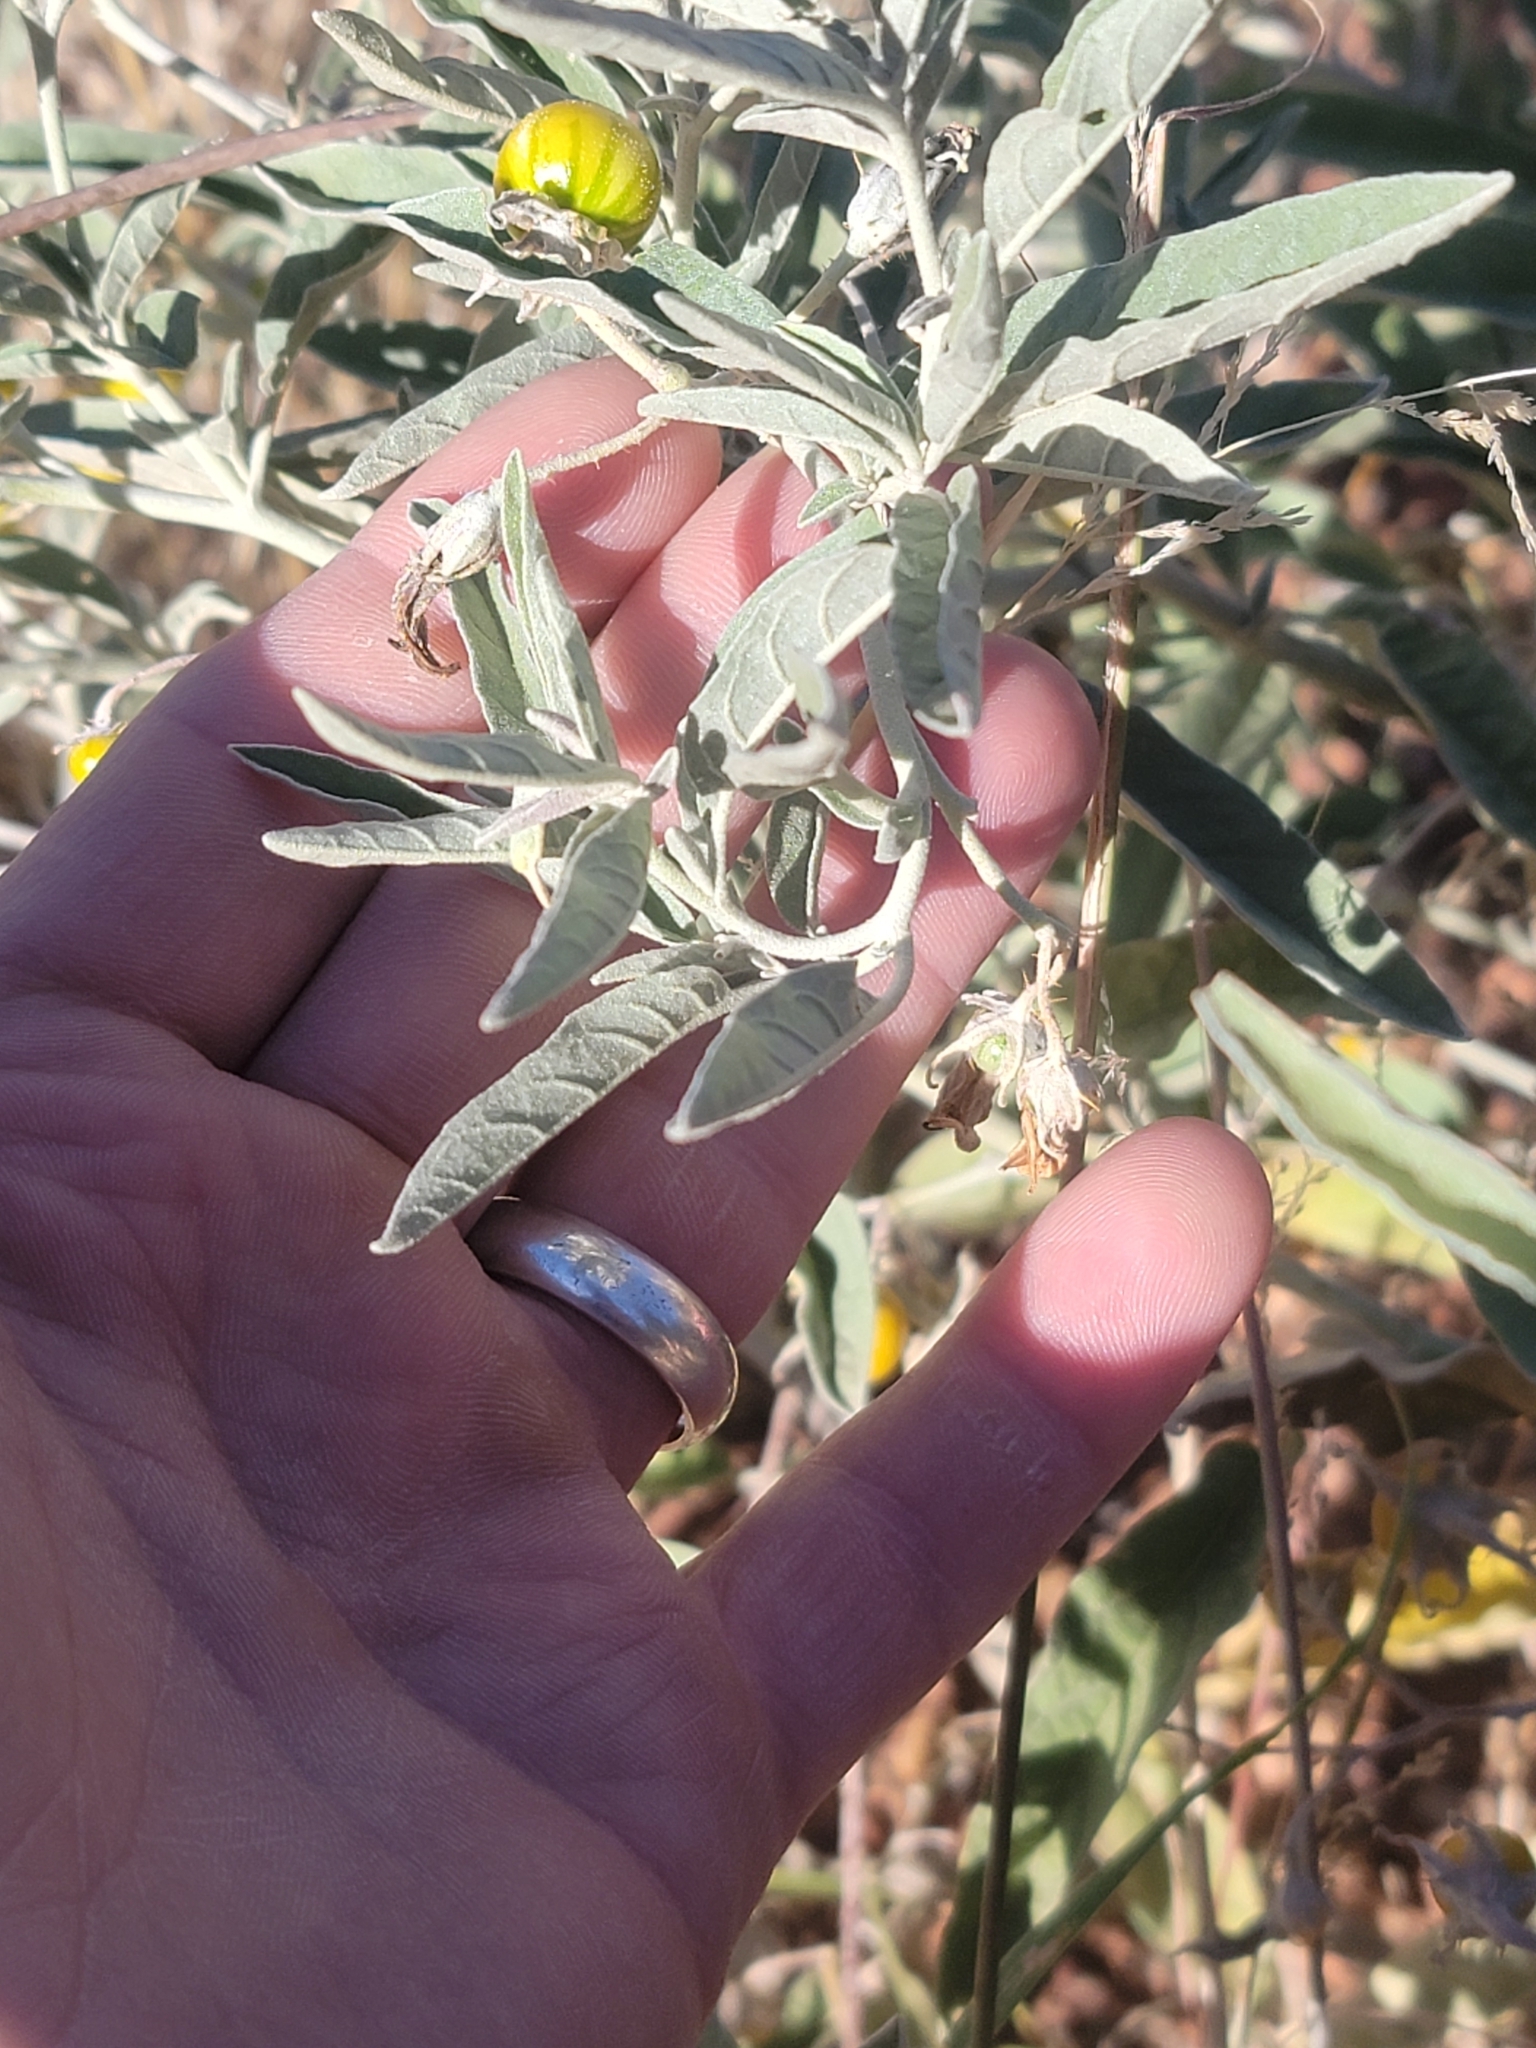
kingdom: Plantae
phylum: Tracheophyta
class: Magnoliopsida
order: Solanales
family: Solanaceae
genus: Solanum
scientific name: Solanum elaeagnifolium
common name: Silverleaf nightshade
